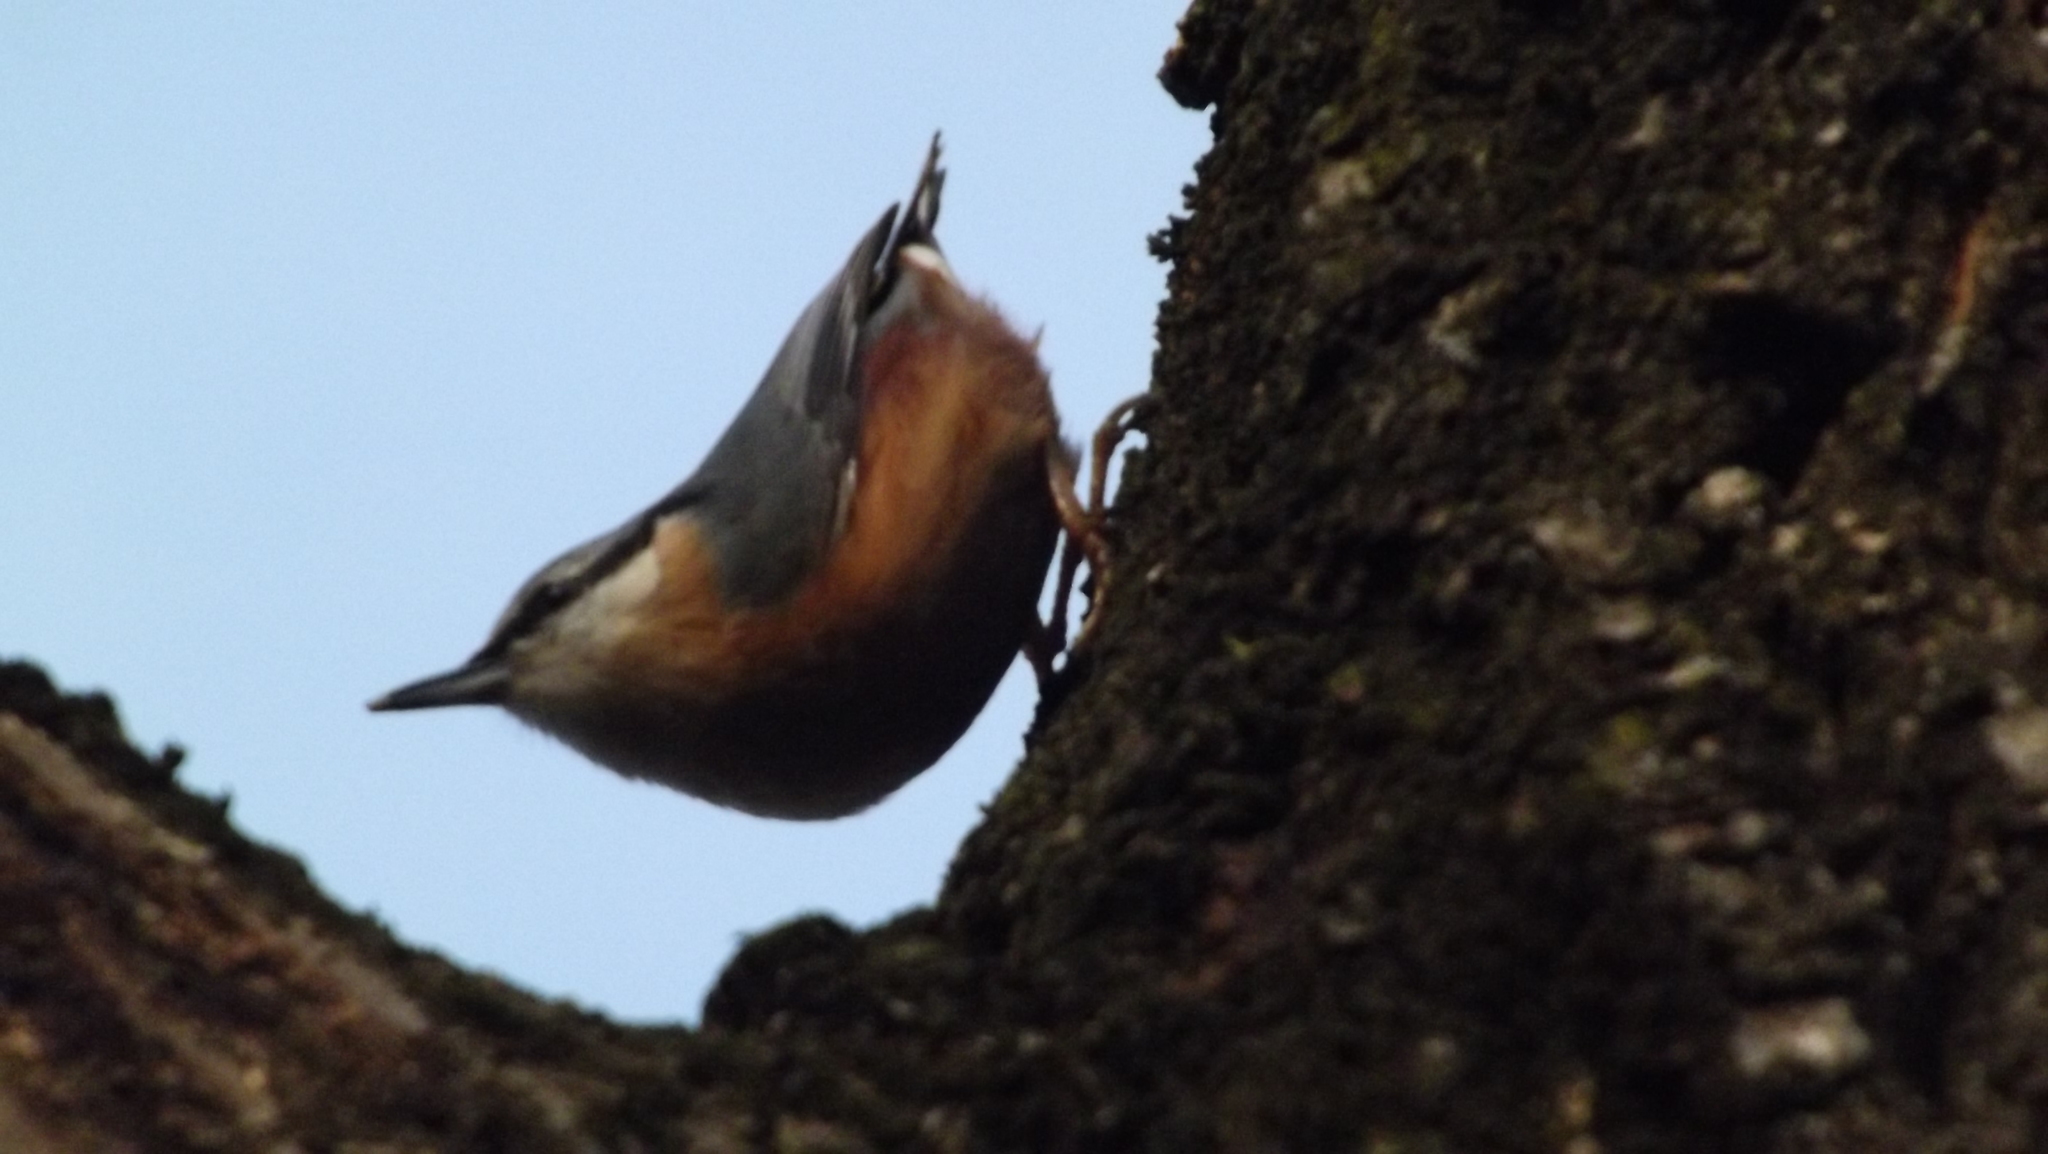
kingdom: Animalia
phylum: Chordata
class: Aves
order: Passeriformes
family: Sittidae
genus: Sitta
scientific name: Sitta europaea
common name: Eurasian nuthatch
